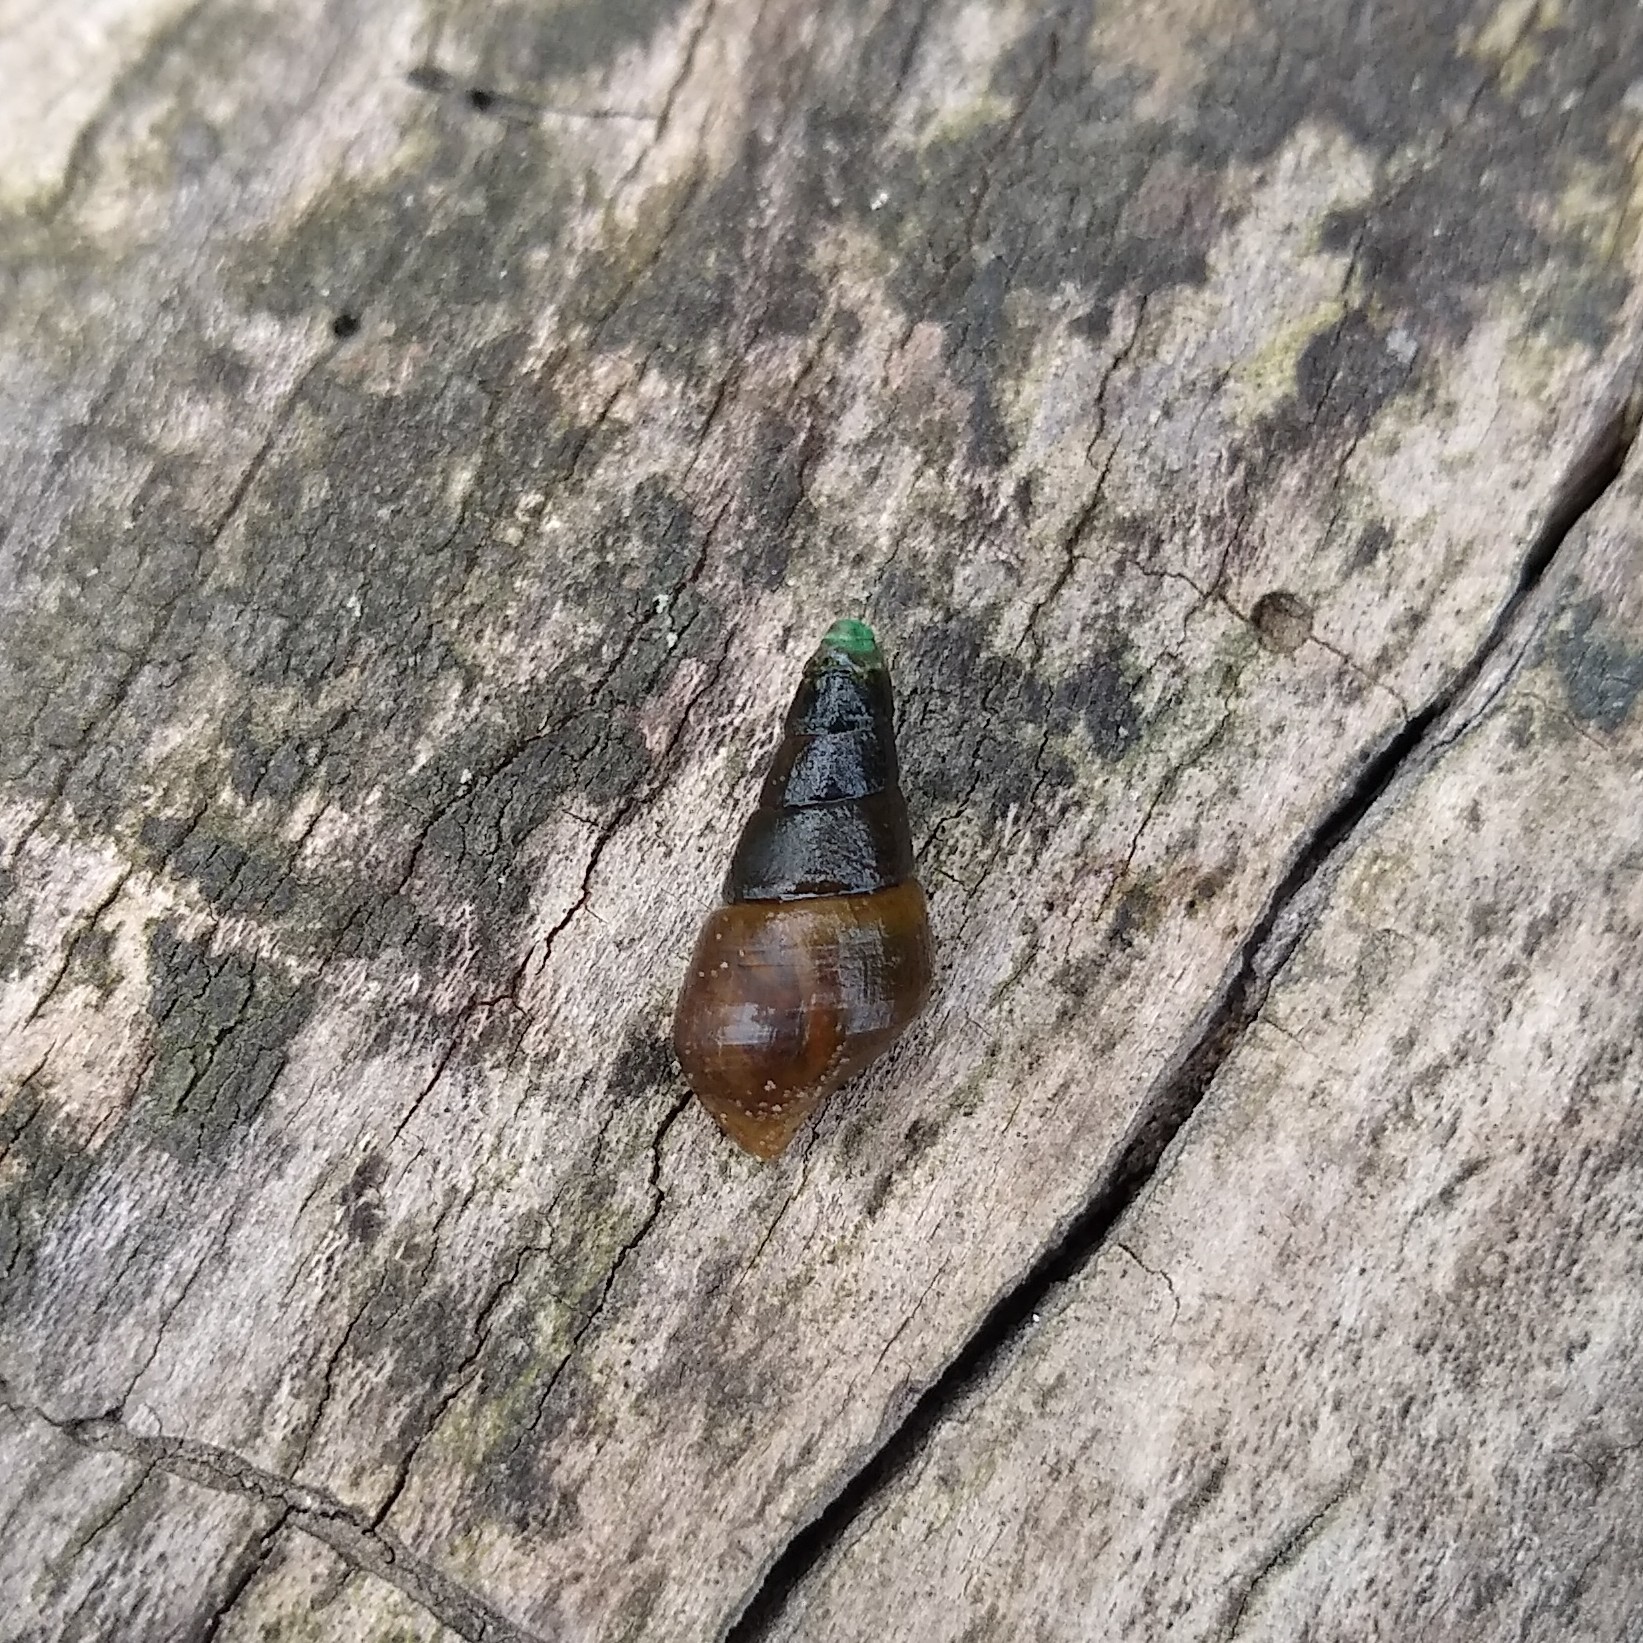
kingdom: Animalia
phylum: Mollusca
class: Gastropoda
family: Pleuroceridae
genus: Elimia
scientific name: Elimia virginica
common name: Piedmont elimia
